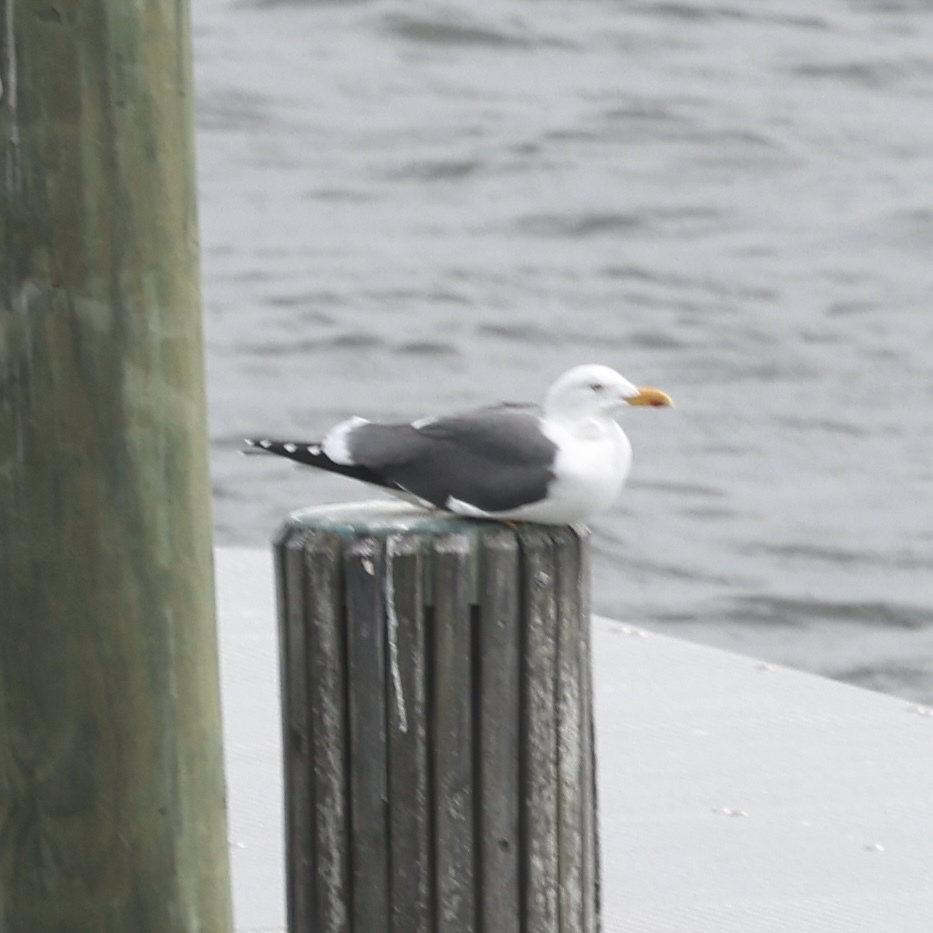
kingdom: Animalia
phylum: Chordata
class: Aves
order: Charadriiformes
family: Laridae
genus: Larus
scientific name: Larus fuscus
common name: Lesser black-backed gull
